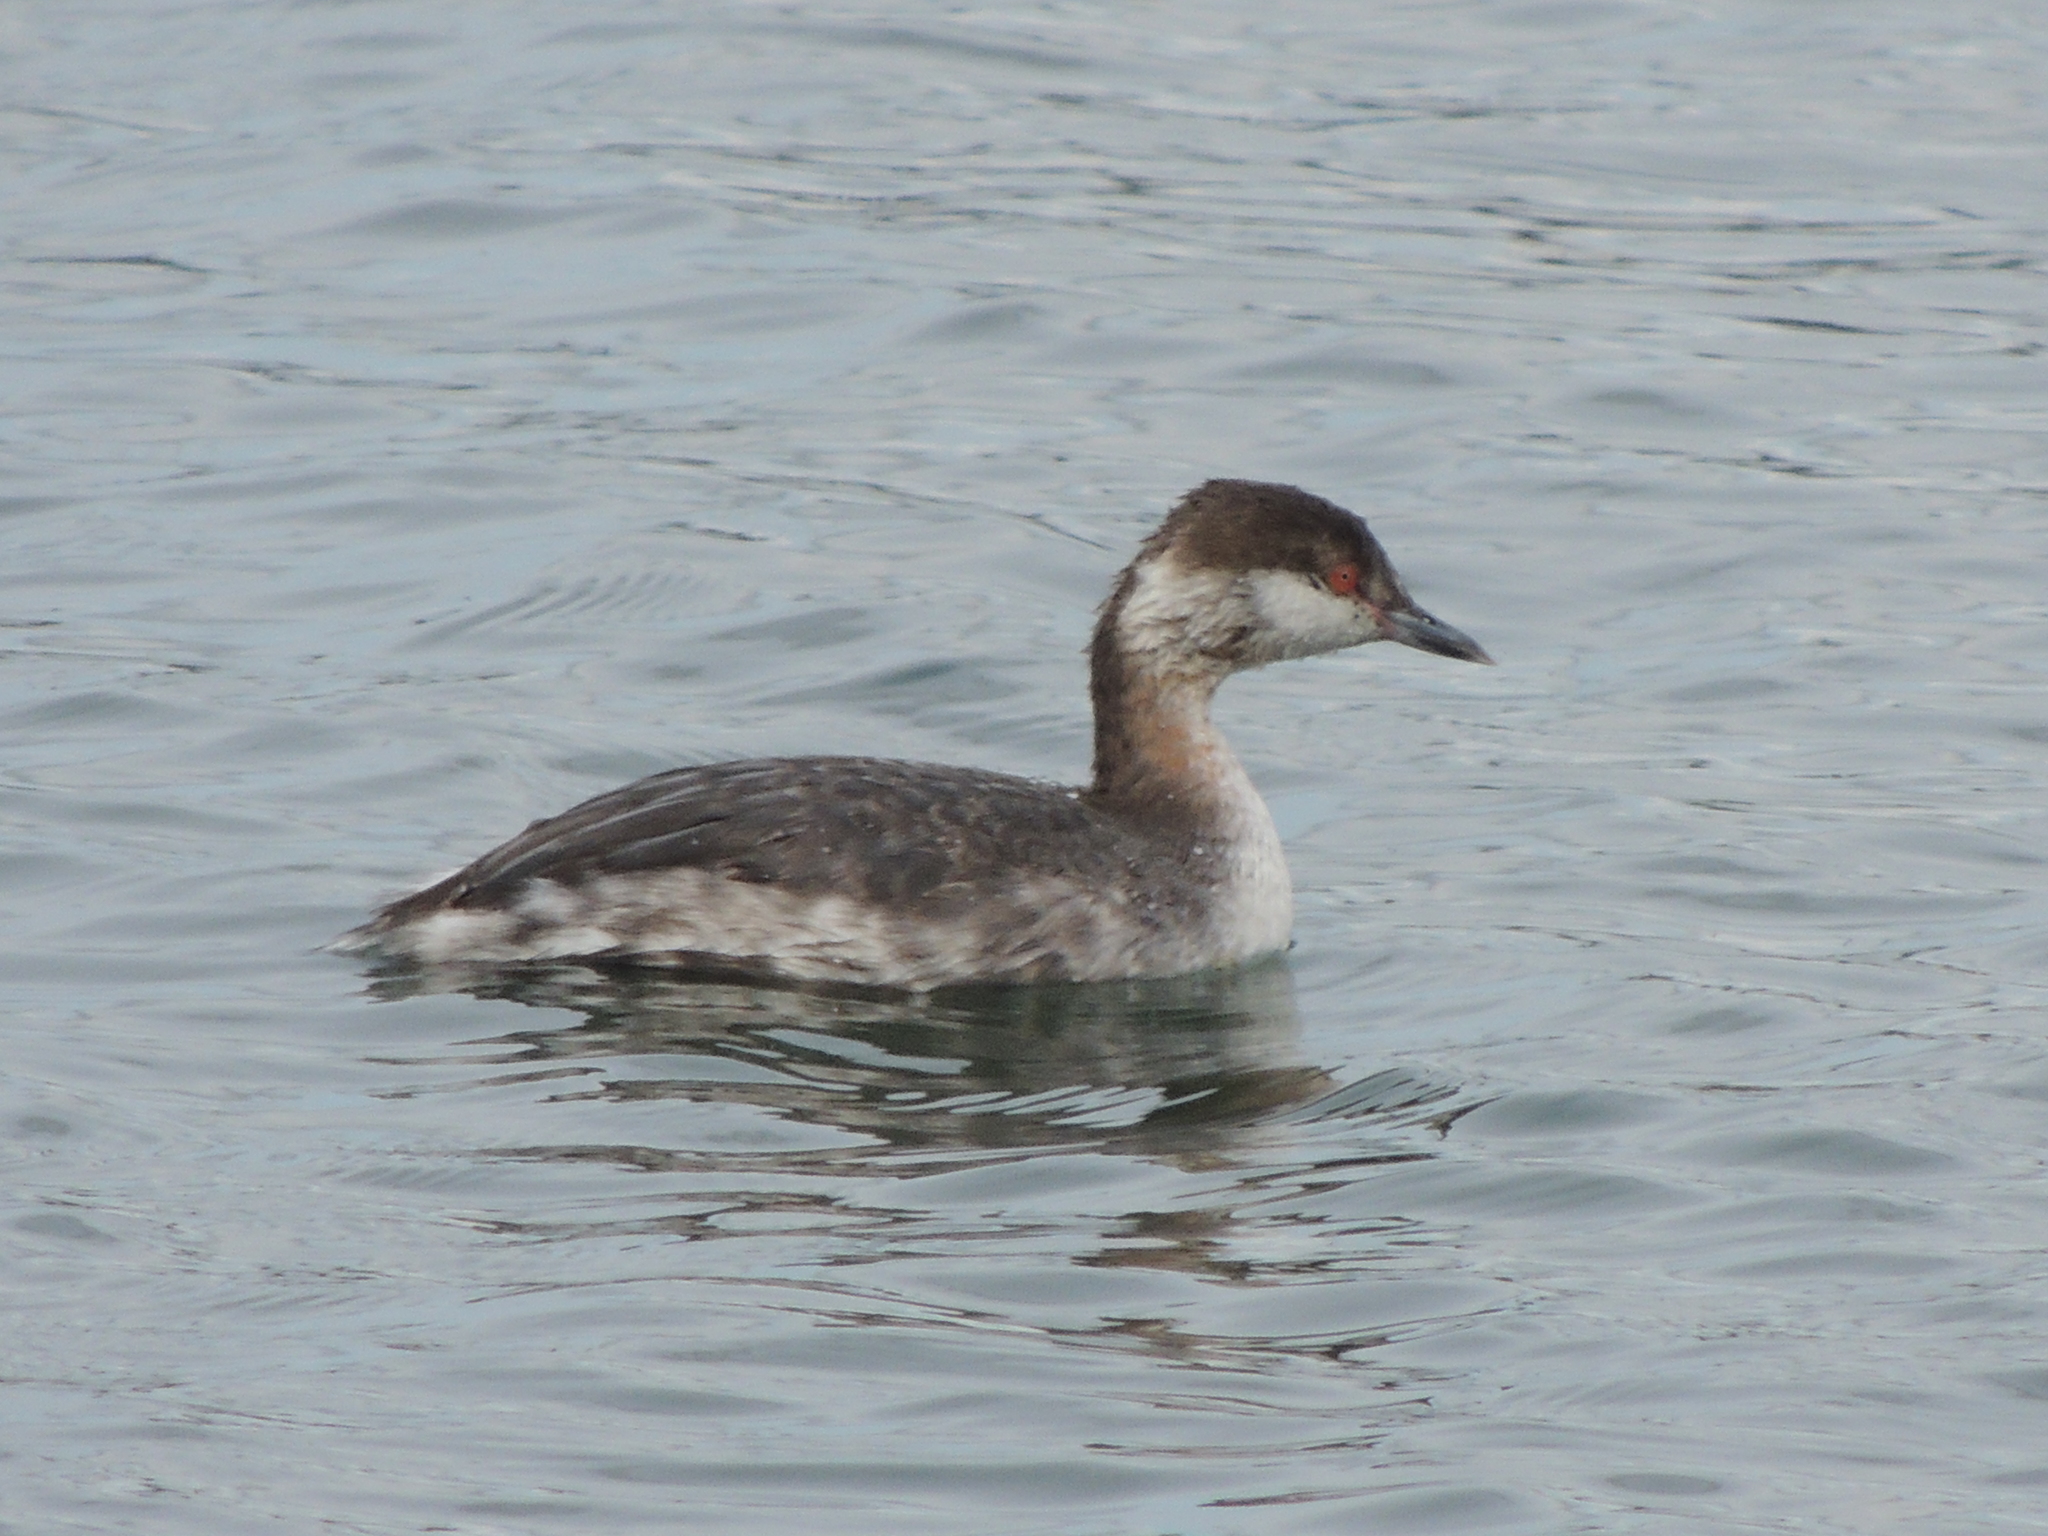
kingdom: Animalia
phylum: Chordata
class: Aves
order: Podicipediformes
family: Podicipedidae
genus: Podiceps
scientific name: Podiceps auritus
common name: Horned grebe
